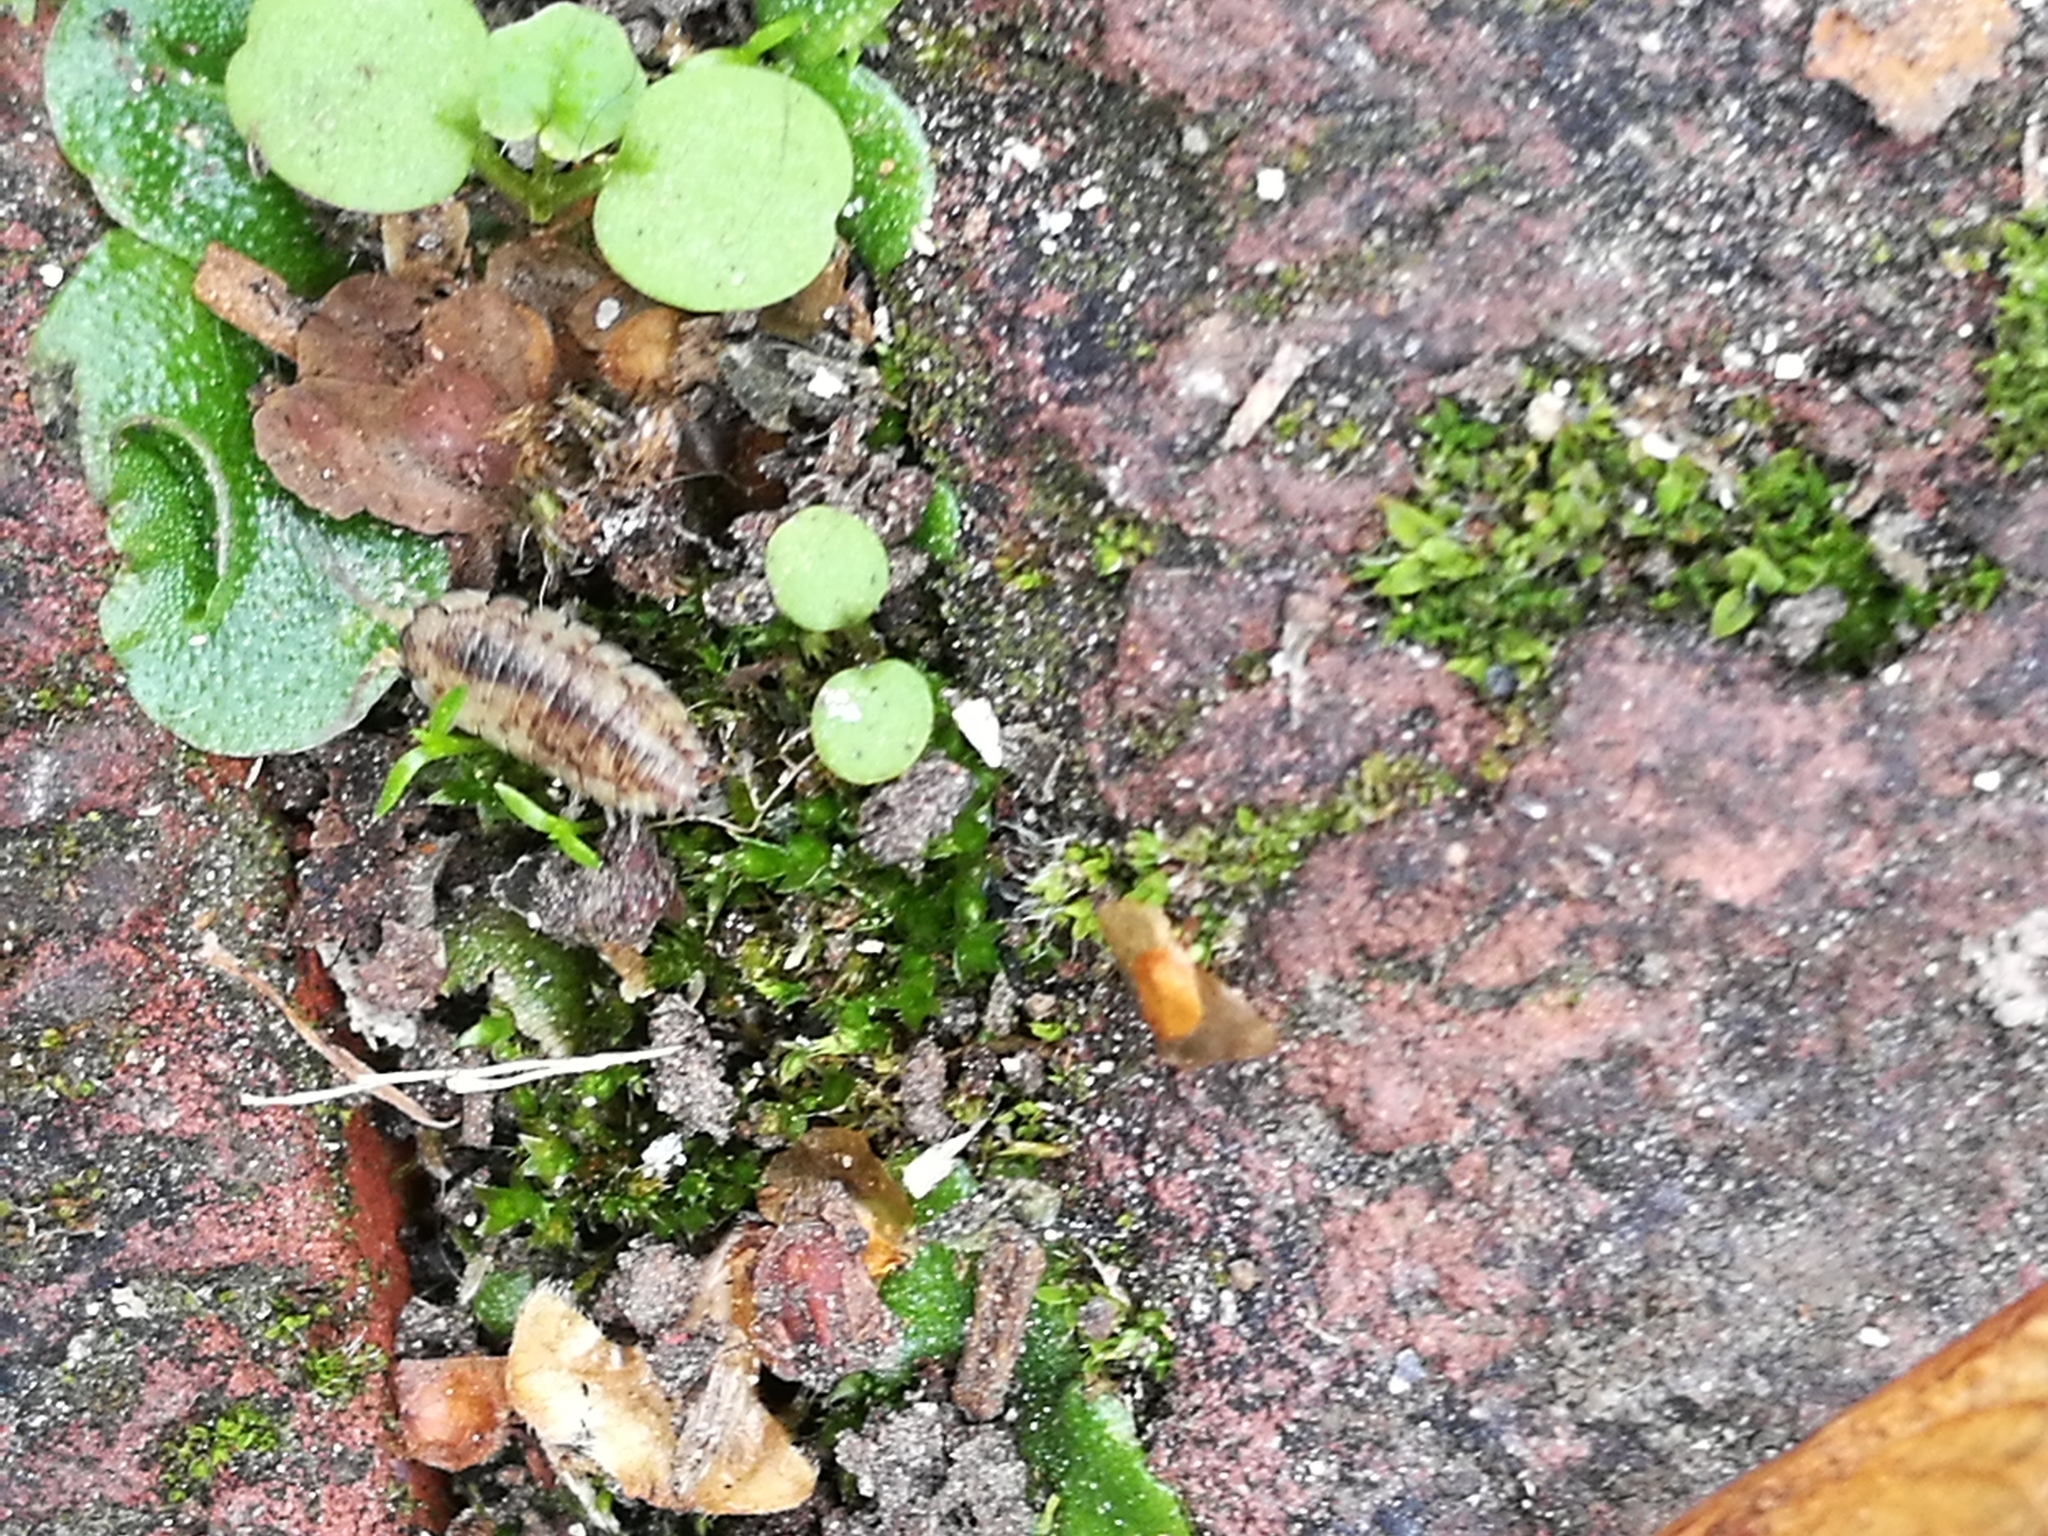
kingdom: Animalia
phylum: Arthropoda
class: Malacostraca
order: Isopoda
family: Porcellionidae
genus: Porcellio
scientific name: Porcellio scaber
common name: Common rough woodlouse
